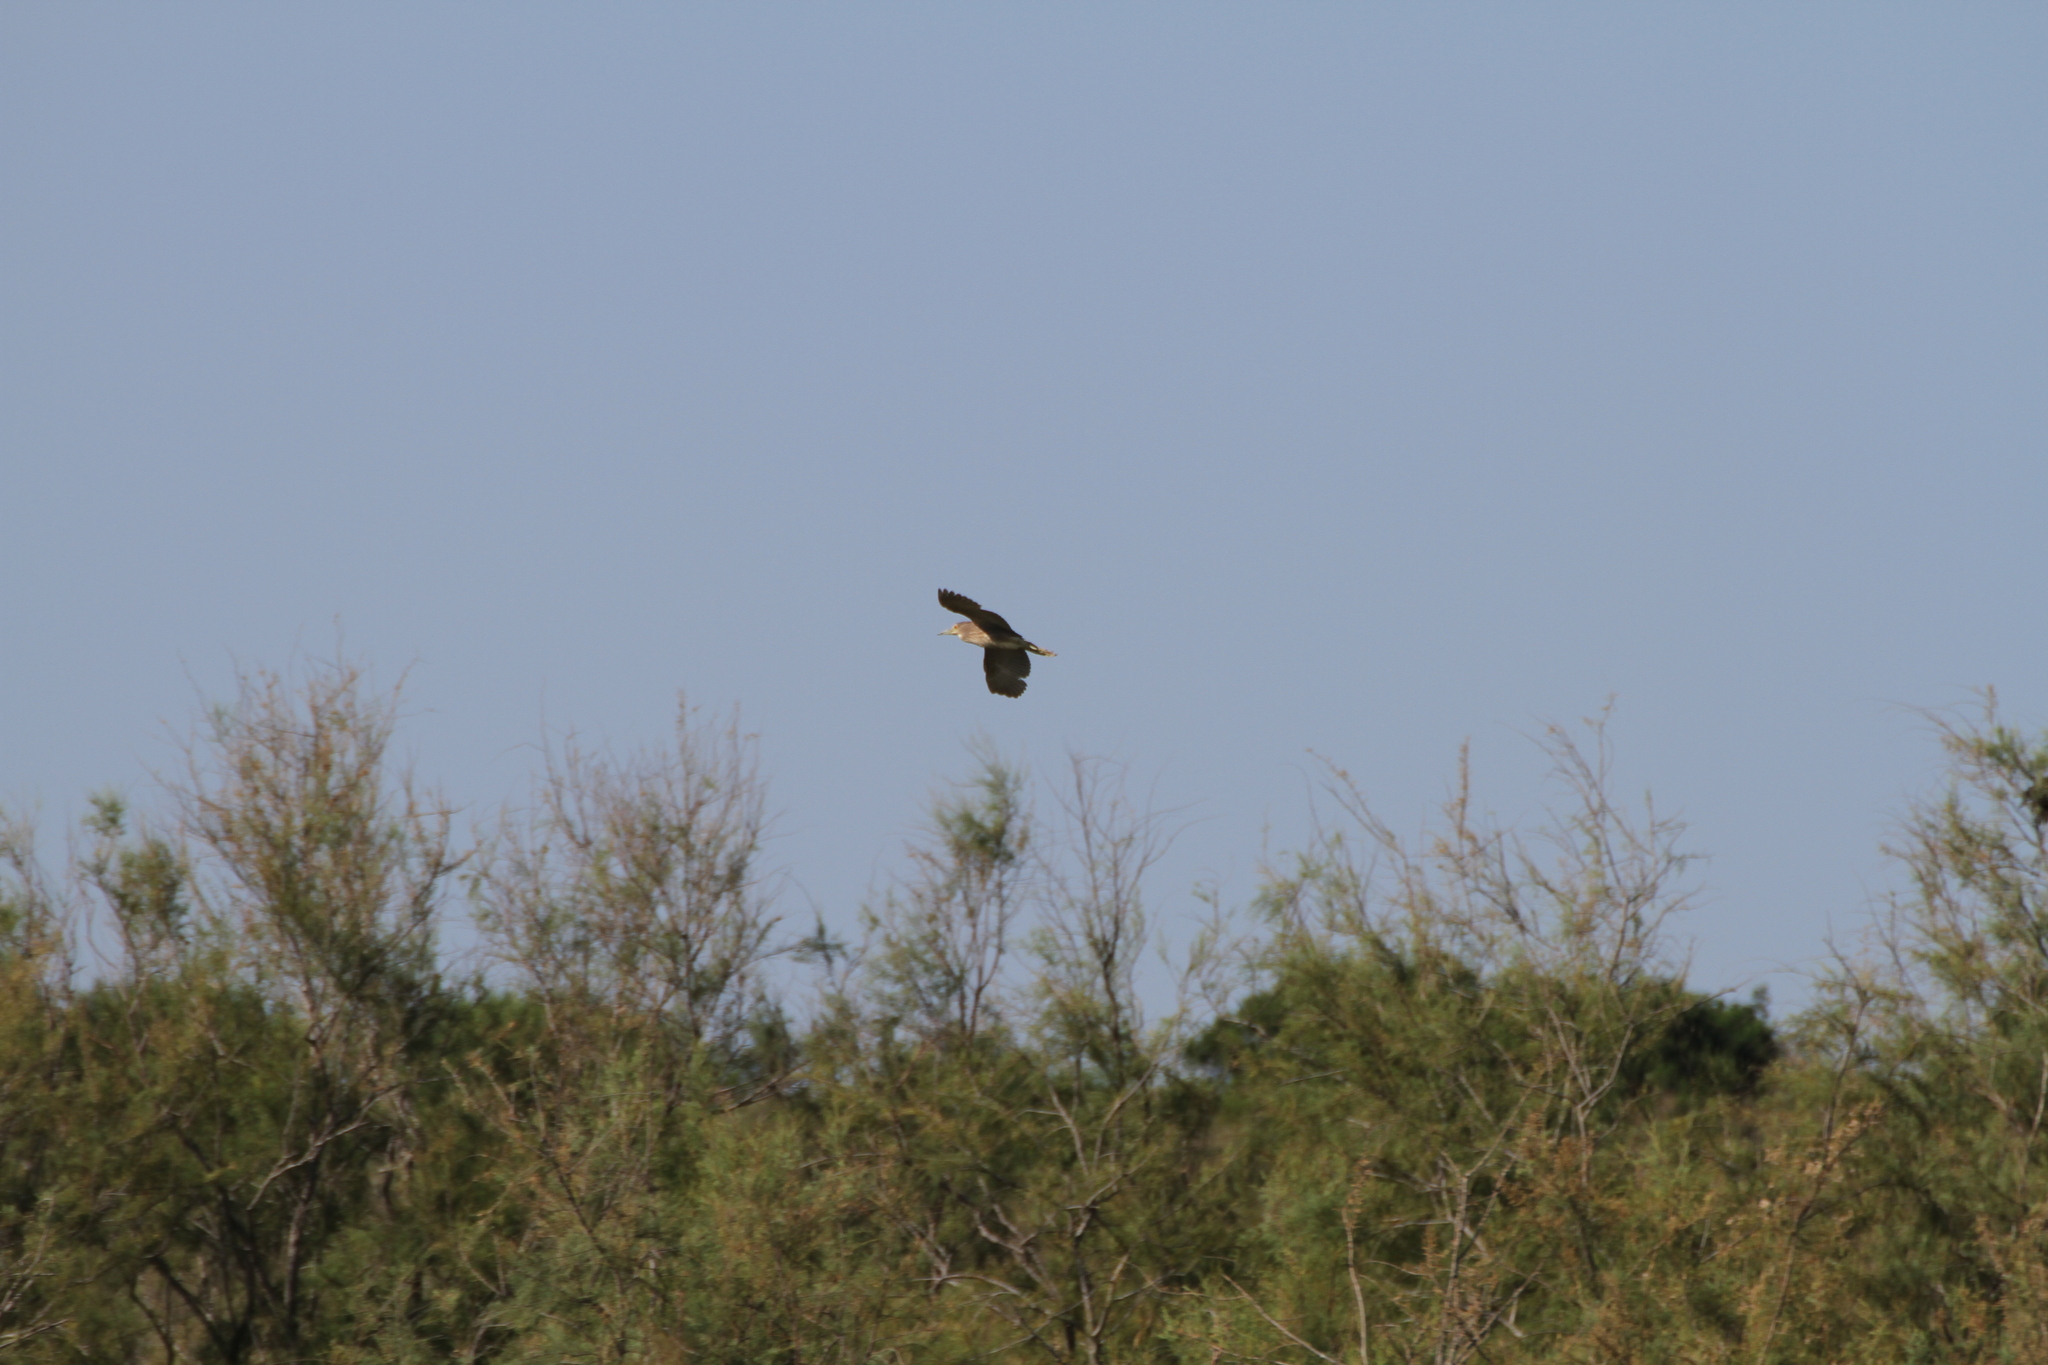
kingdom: Animalia
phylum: Chordata
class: Aves
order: Pelecaniformes
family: Ardeidae
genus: Nycticorax
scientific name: Nycticorax nycticorax
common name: Black-crowned night heron
